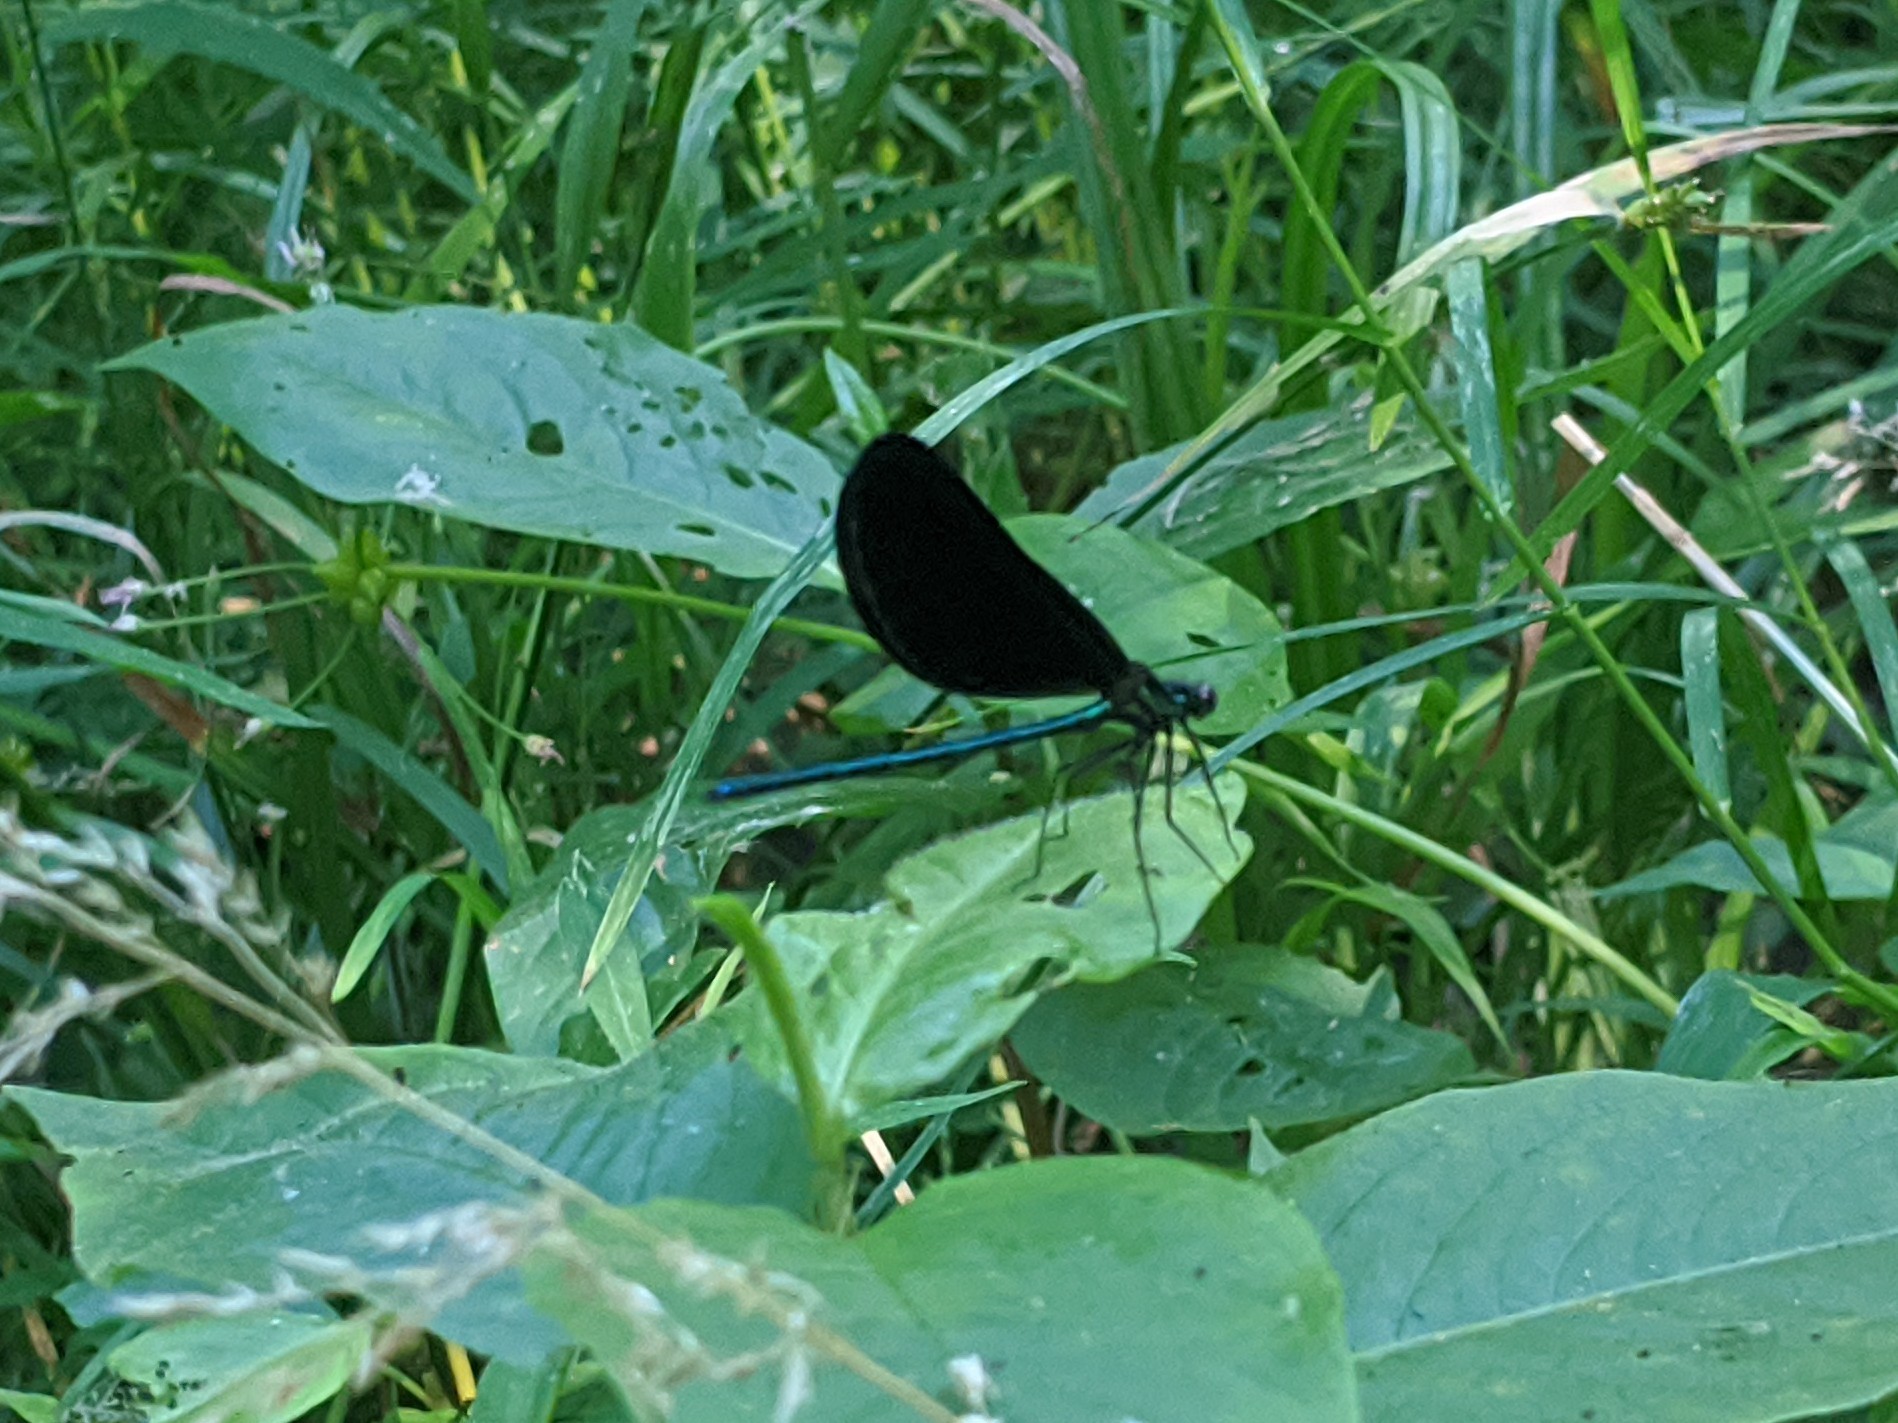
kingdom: Animalia
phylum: Arthropoda
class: Insecta
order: Odonata
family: Calopterygidae
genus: Calopteryx
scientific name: Calopteryx maculata
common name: Ebony jewelwing
